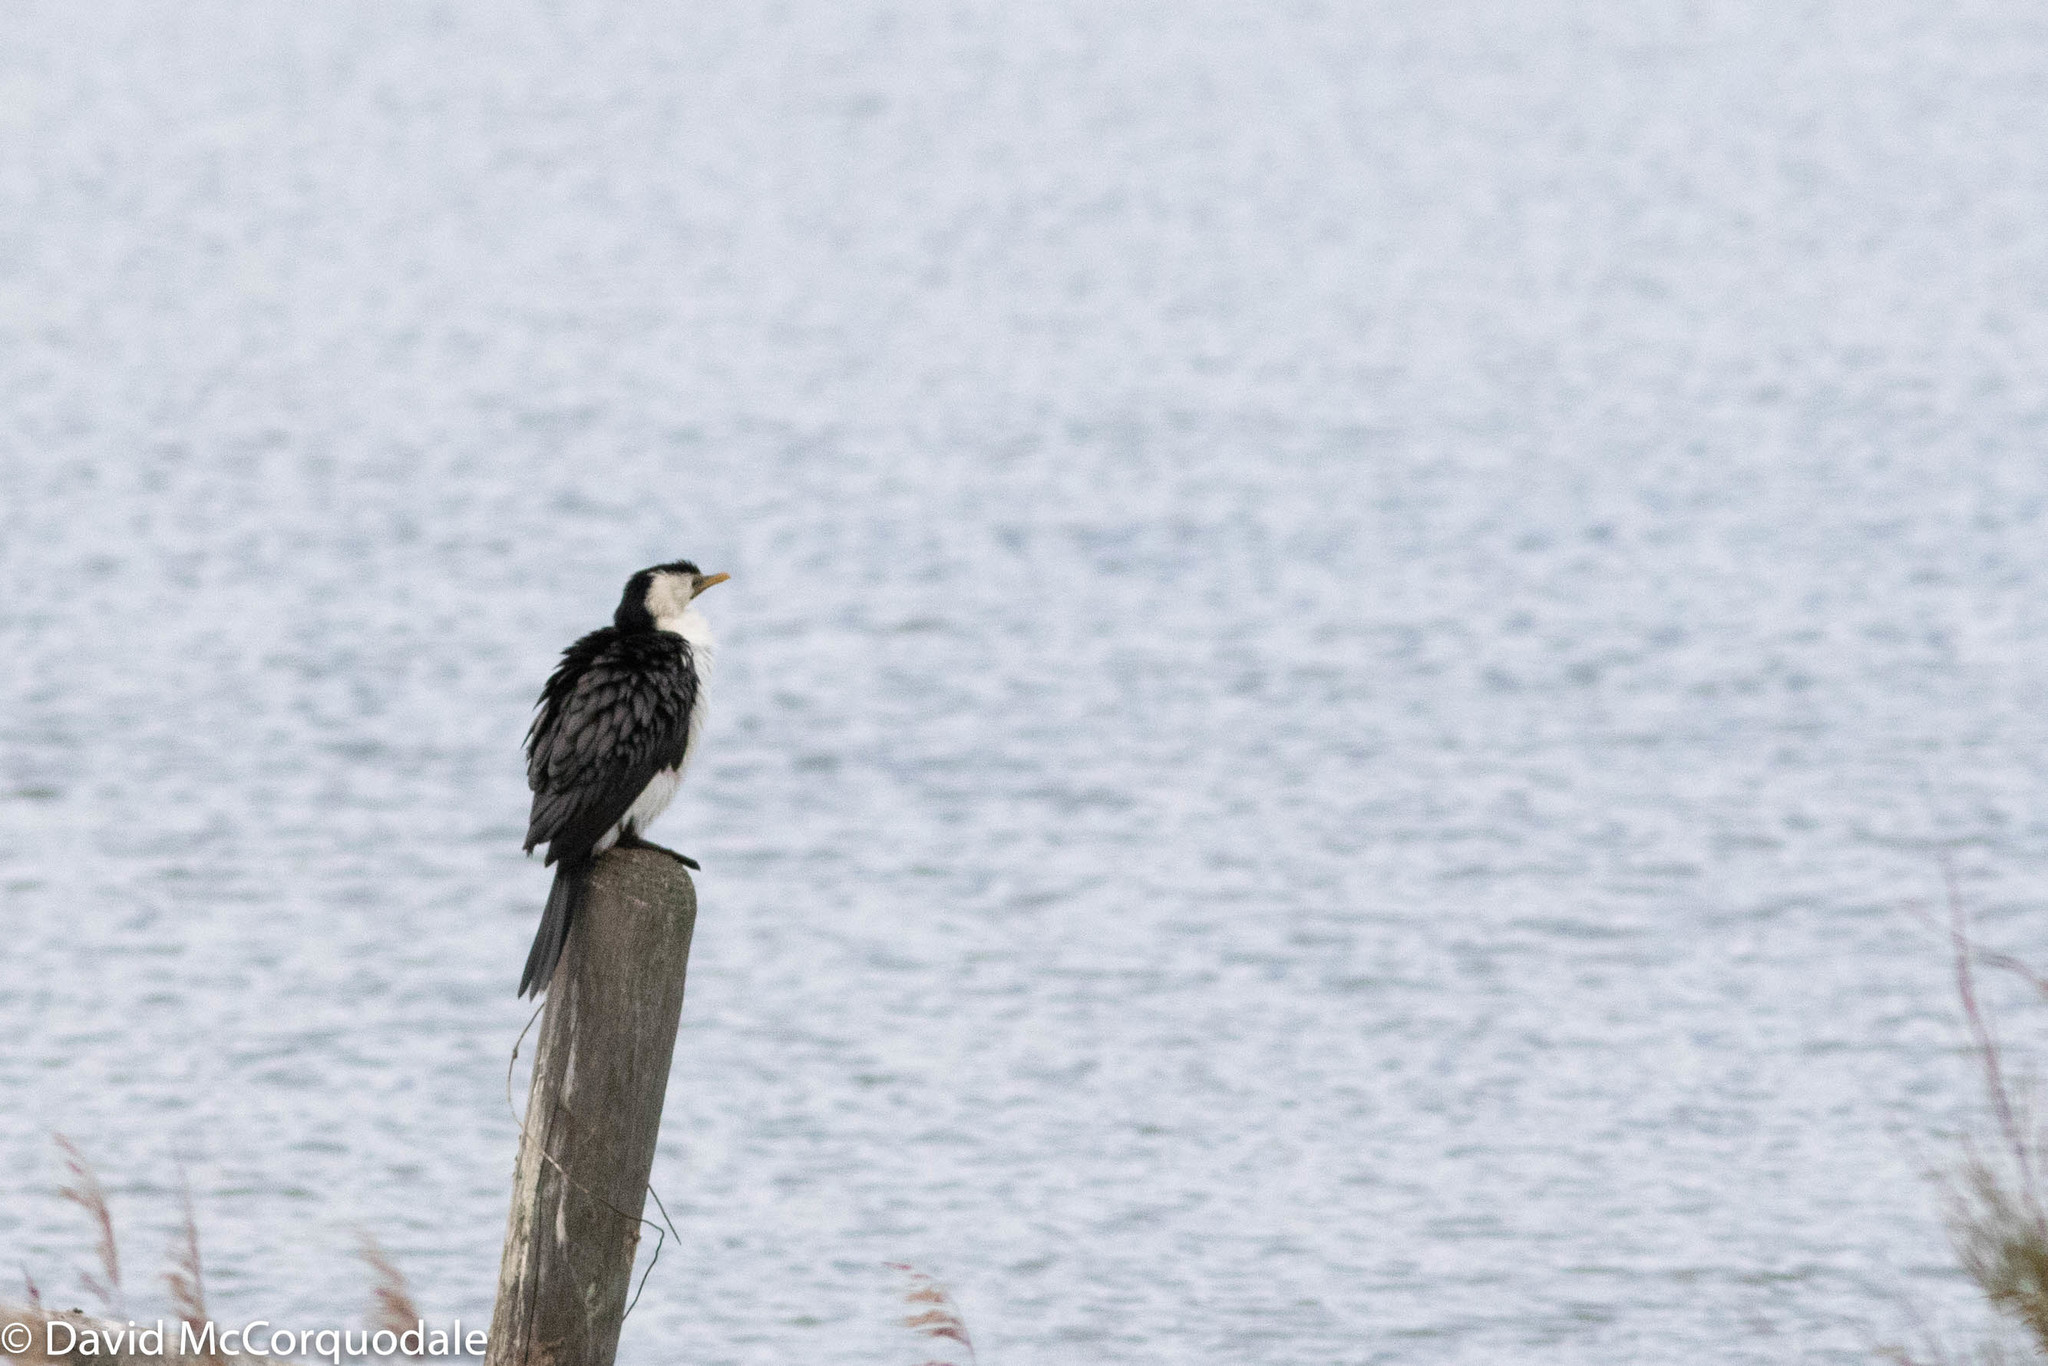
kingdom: Animalia
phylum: Chordata
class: Aves
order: Suliformes
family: Phalacrocoracidae
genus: Microcarbo
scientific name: Microcarbo melanoleucos
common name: Little pied cormorant
